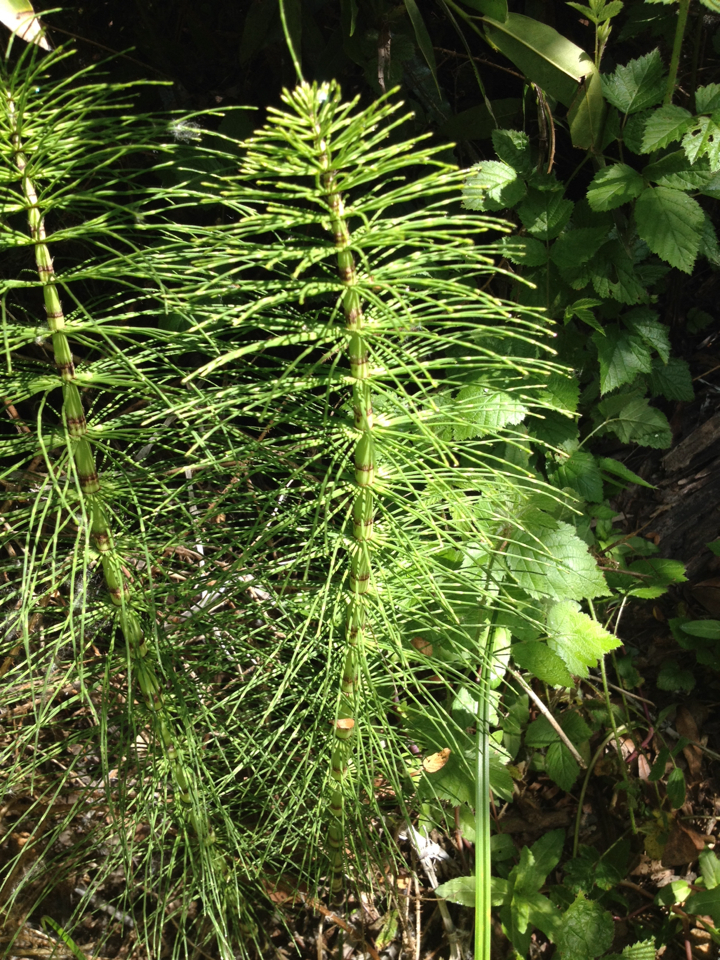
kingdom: Plantae
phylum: Tracheophyta
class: Polypodiopsida
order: Equisetales
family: Equisetaceae
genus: Equisetum
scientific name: Equisetum braunii
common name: Braun's horsetail
